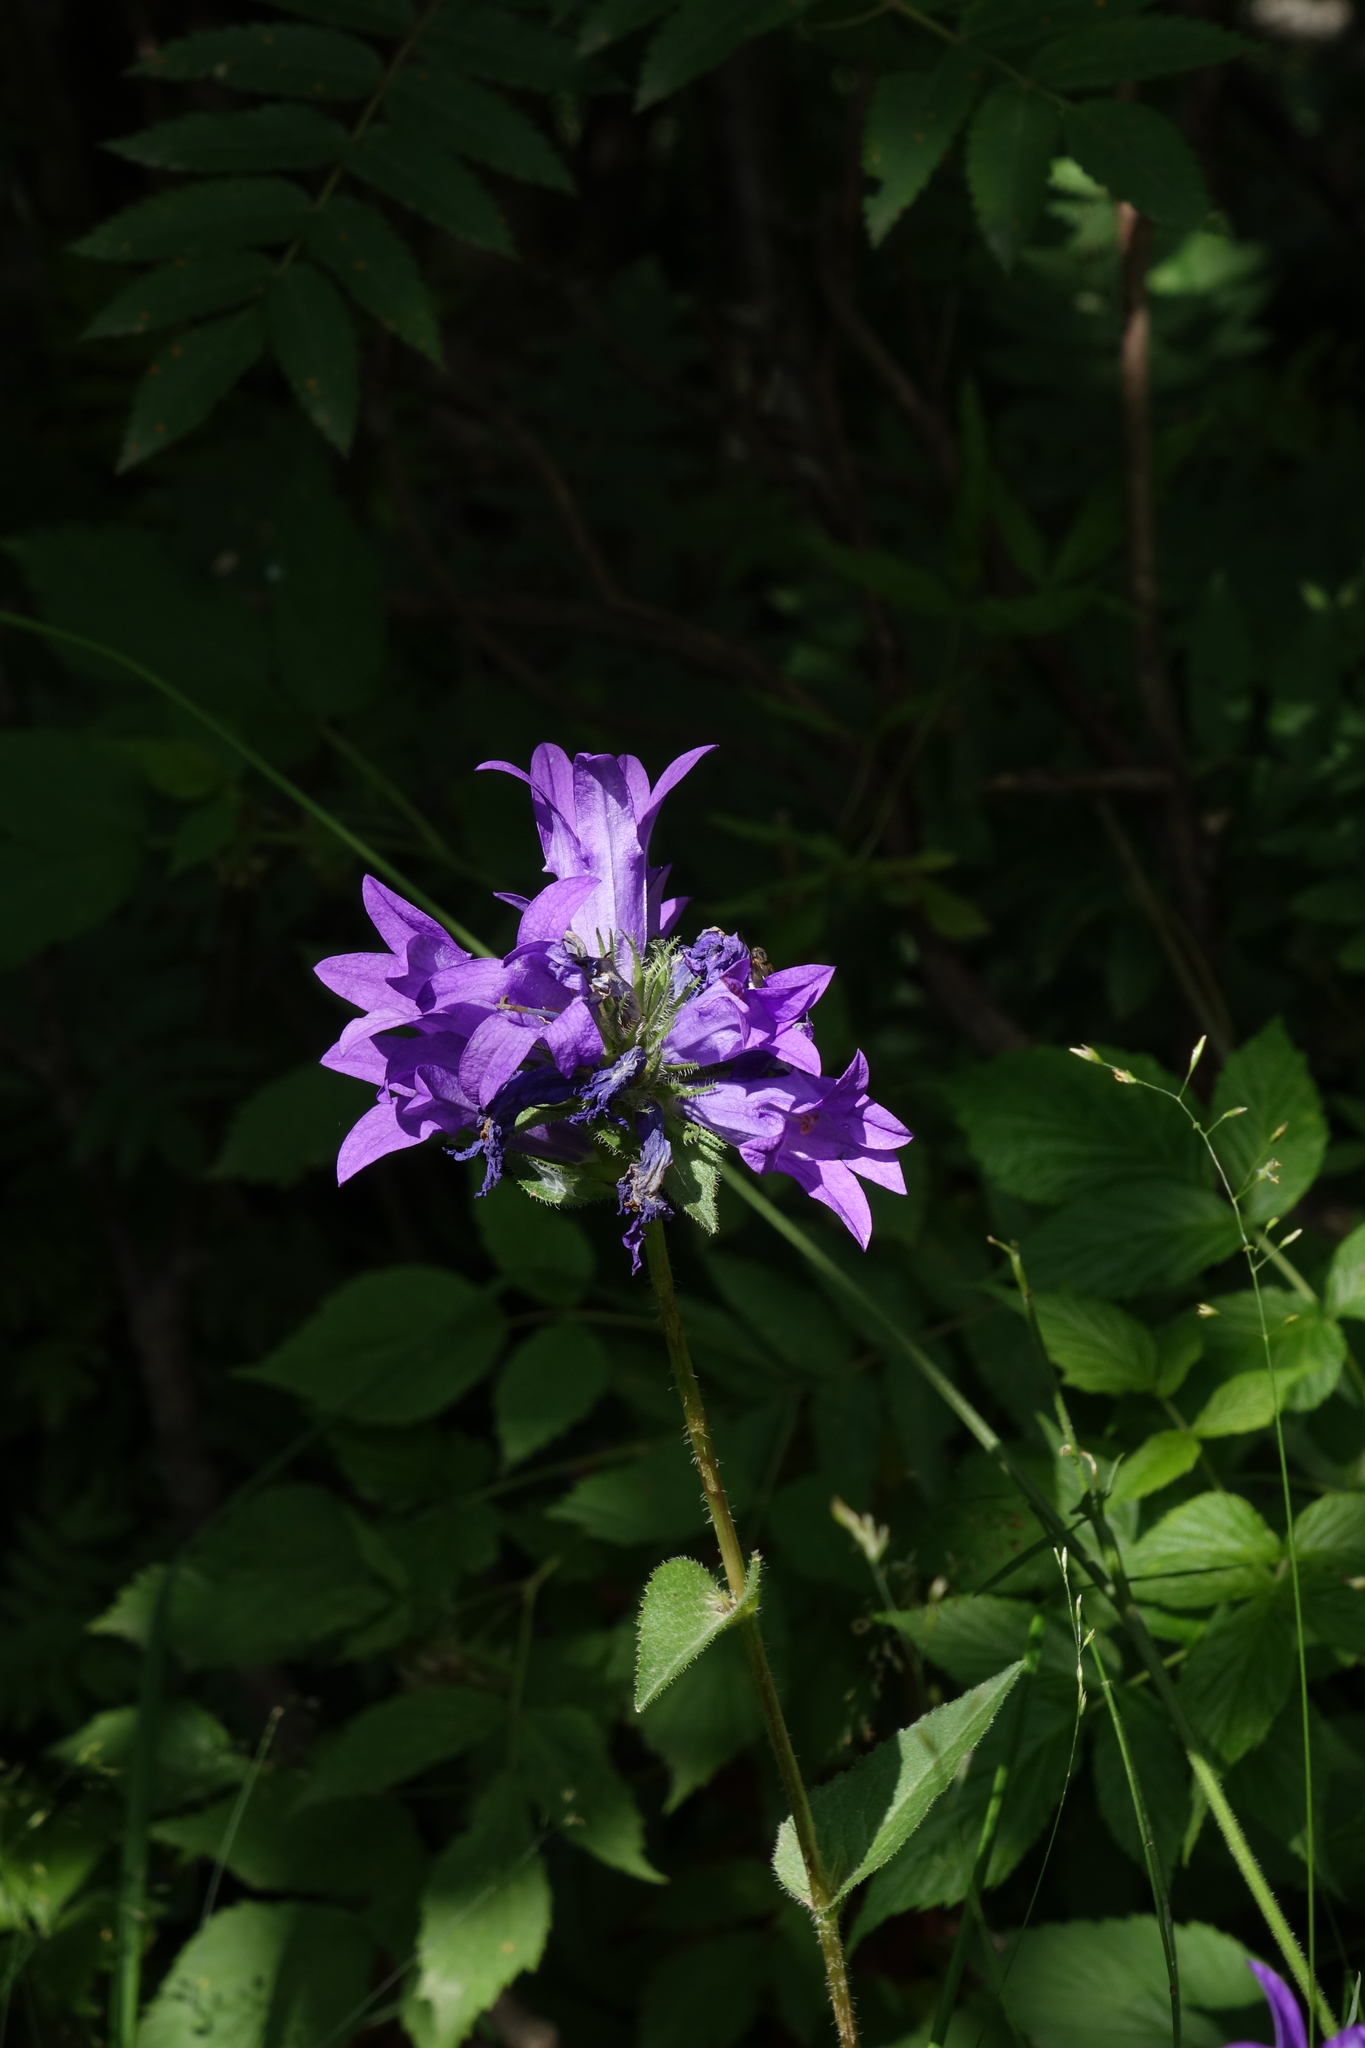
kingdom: Plantae
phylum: Tracheophyta
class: Magnoliopsida
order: Asterales
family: Campanulaceae
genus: Campanula
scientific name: Campanula glomerata
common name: Clustered bellflower
